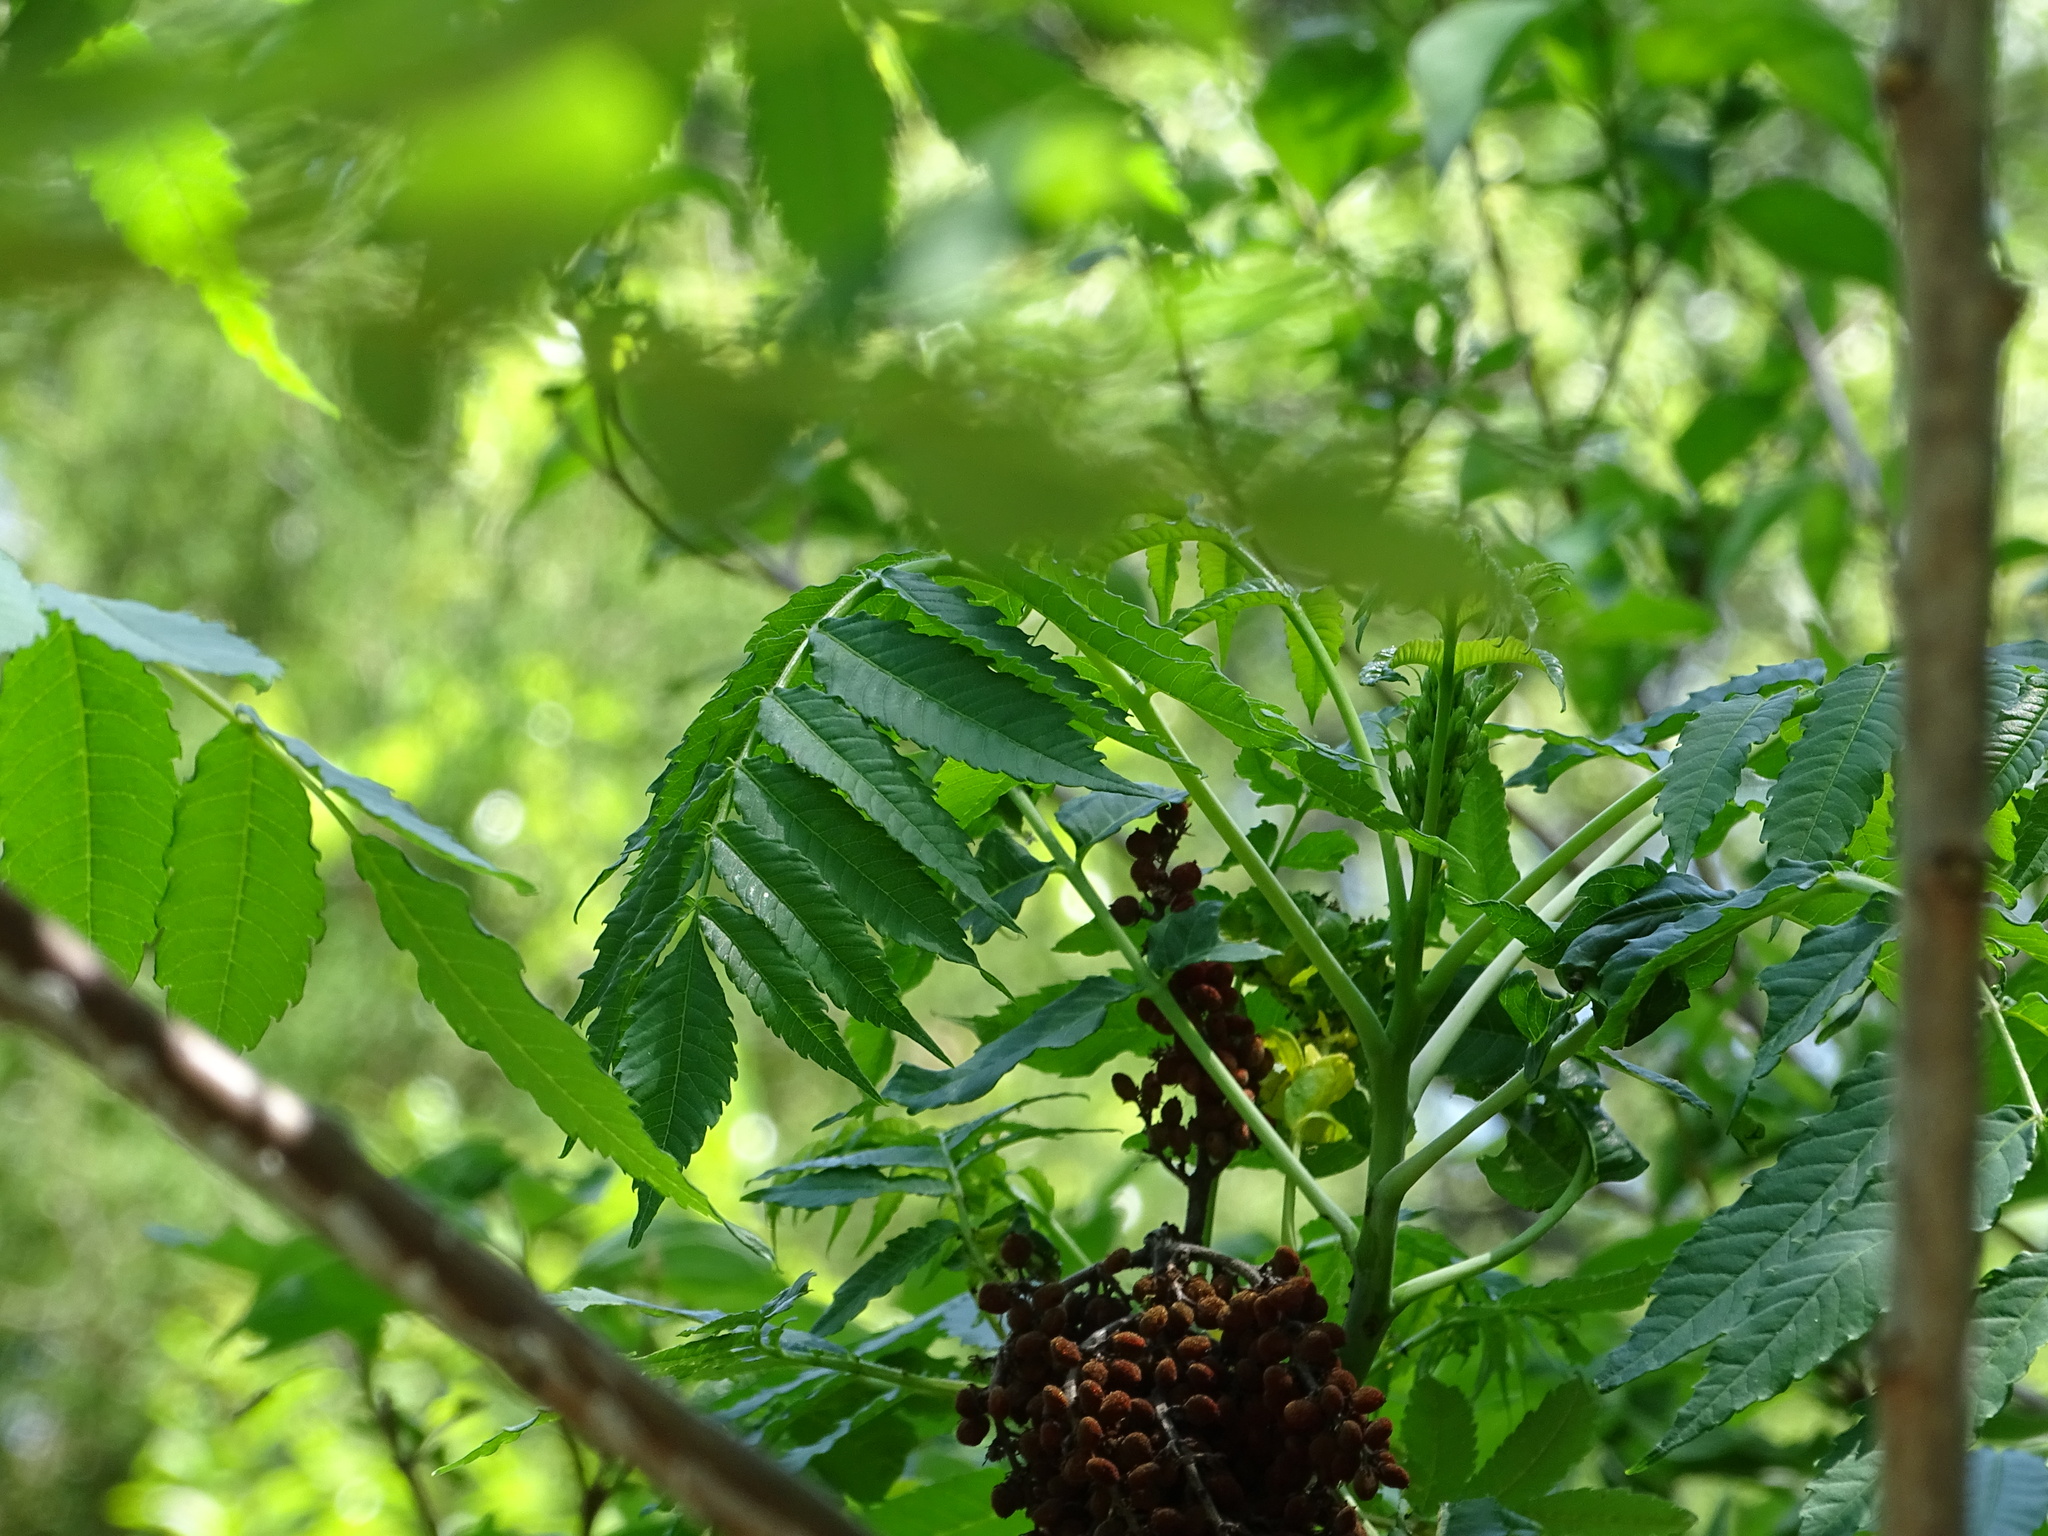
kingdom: Plantae
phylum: Tracheophyta
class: Magnoliopsida
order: Sapindales
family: Anacardiaceae
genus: Rhus
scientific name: Rhus glabra
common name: Scarlet sumac
